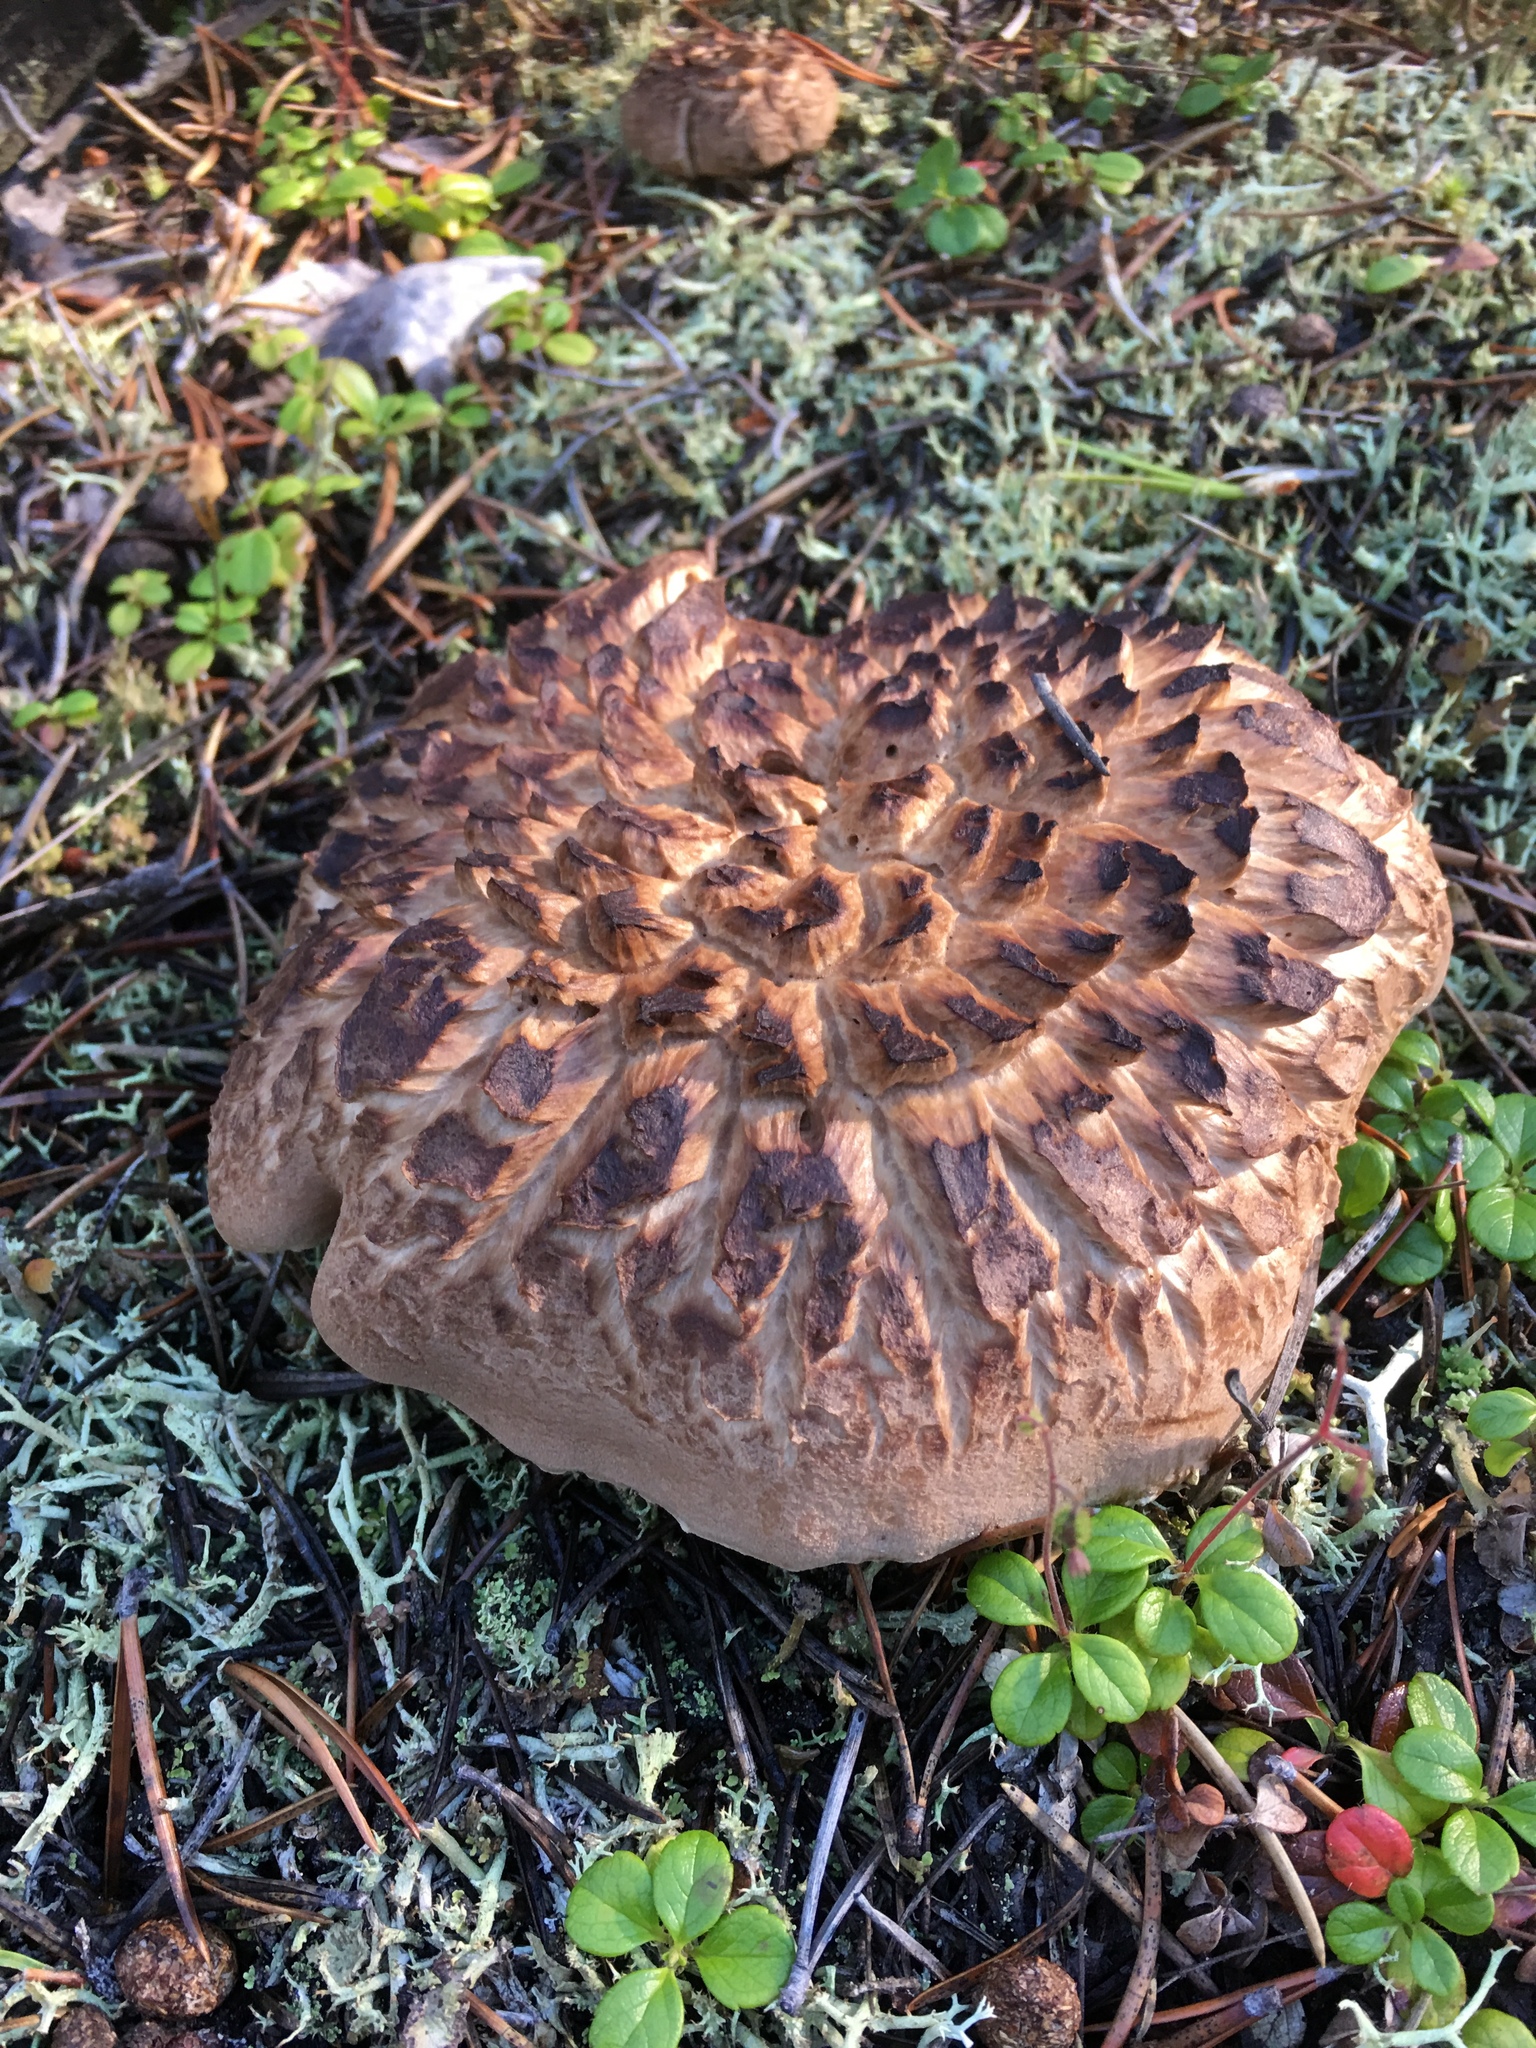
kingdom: Fungi
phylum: Basidiomycota
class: Agaricomycetes
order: Thelephorales
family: Bankeraceae
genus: Sarcodon
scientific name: Sarcodon imbricatus
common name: Shingled hedgehog
